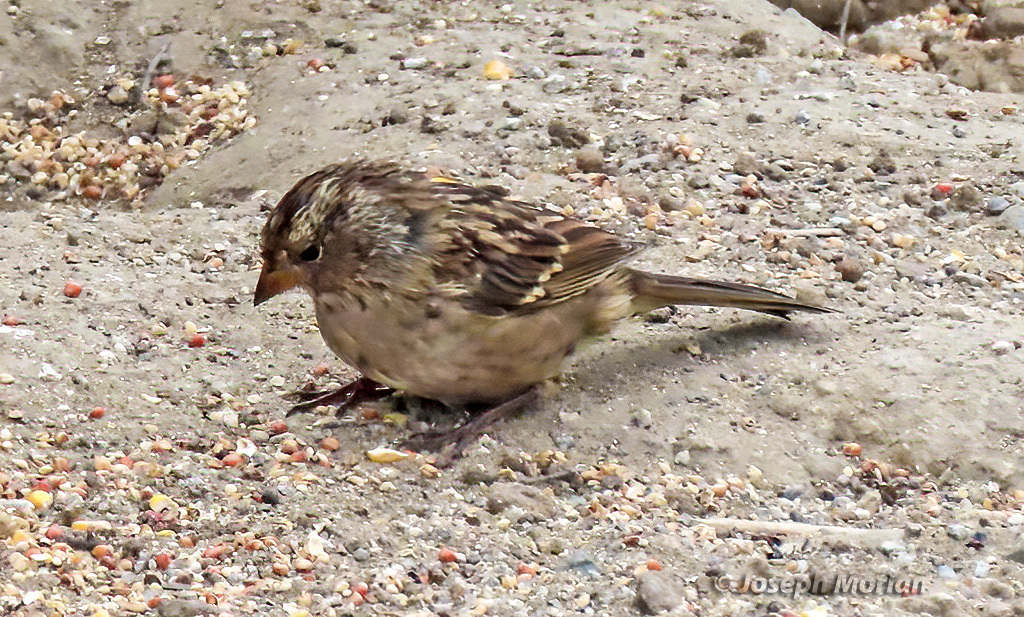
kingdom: Animalia
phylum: Chordata
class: Aves
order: Passeriformes
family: Passerellidae
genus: Zonotrichia
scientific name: Zonotrichia leucophrys
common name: White-crowned sparrow
